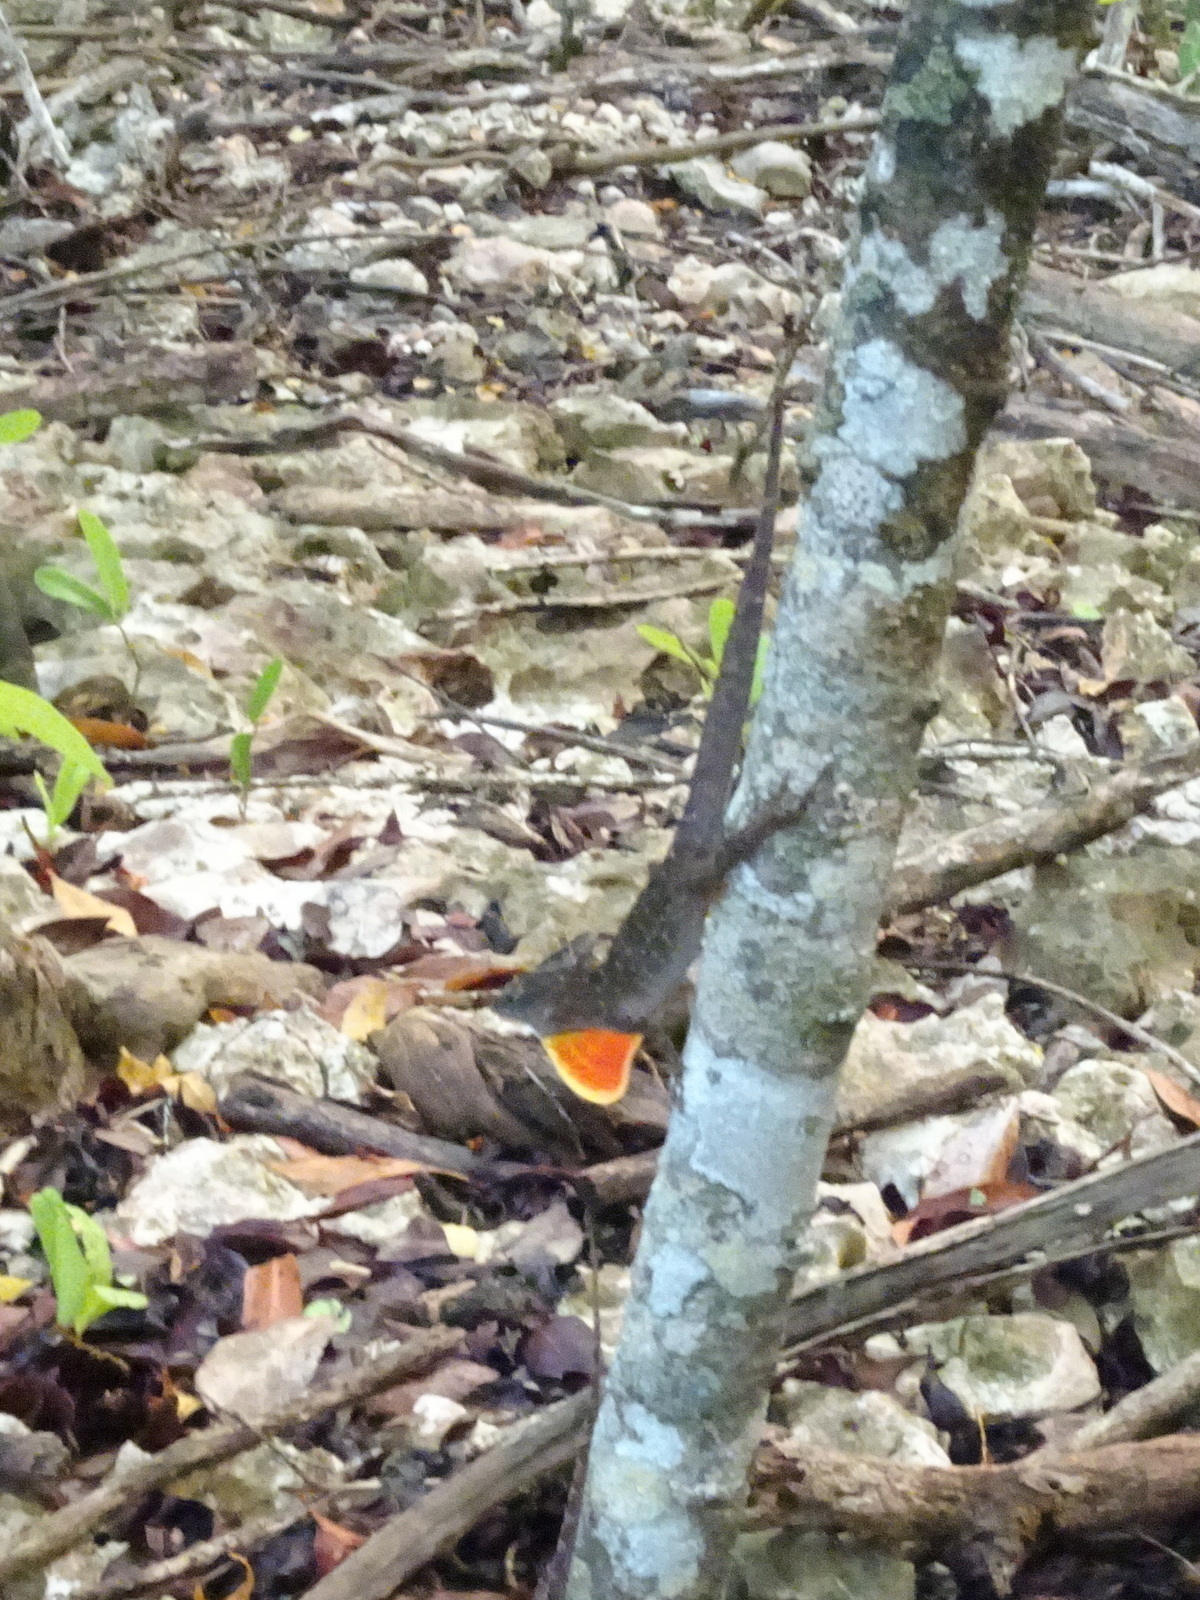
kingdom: Animalia
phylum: Chordata
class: Squamata
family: Dactyloidae
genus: Anolis
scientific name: Anolis sagrei
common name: Brown anole
